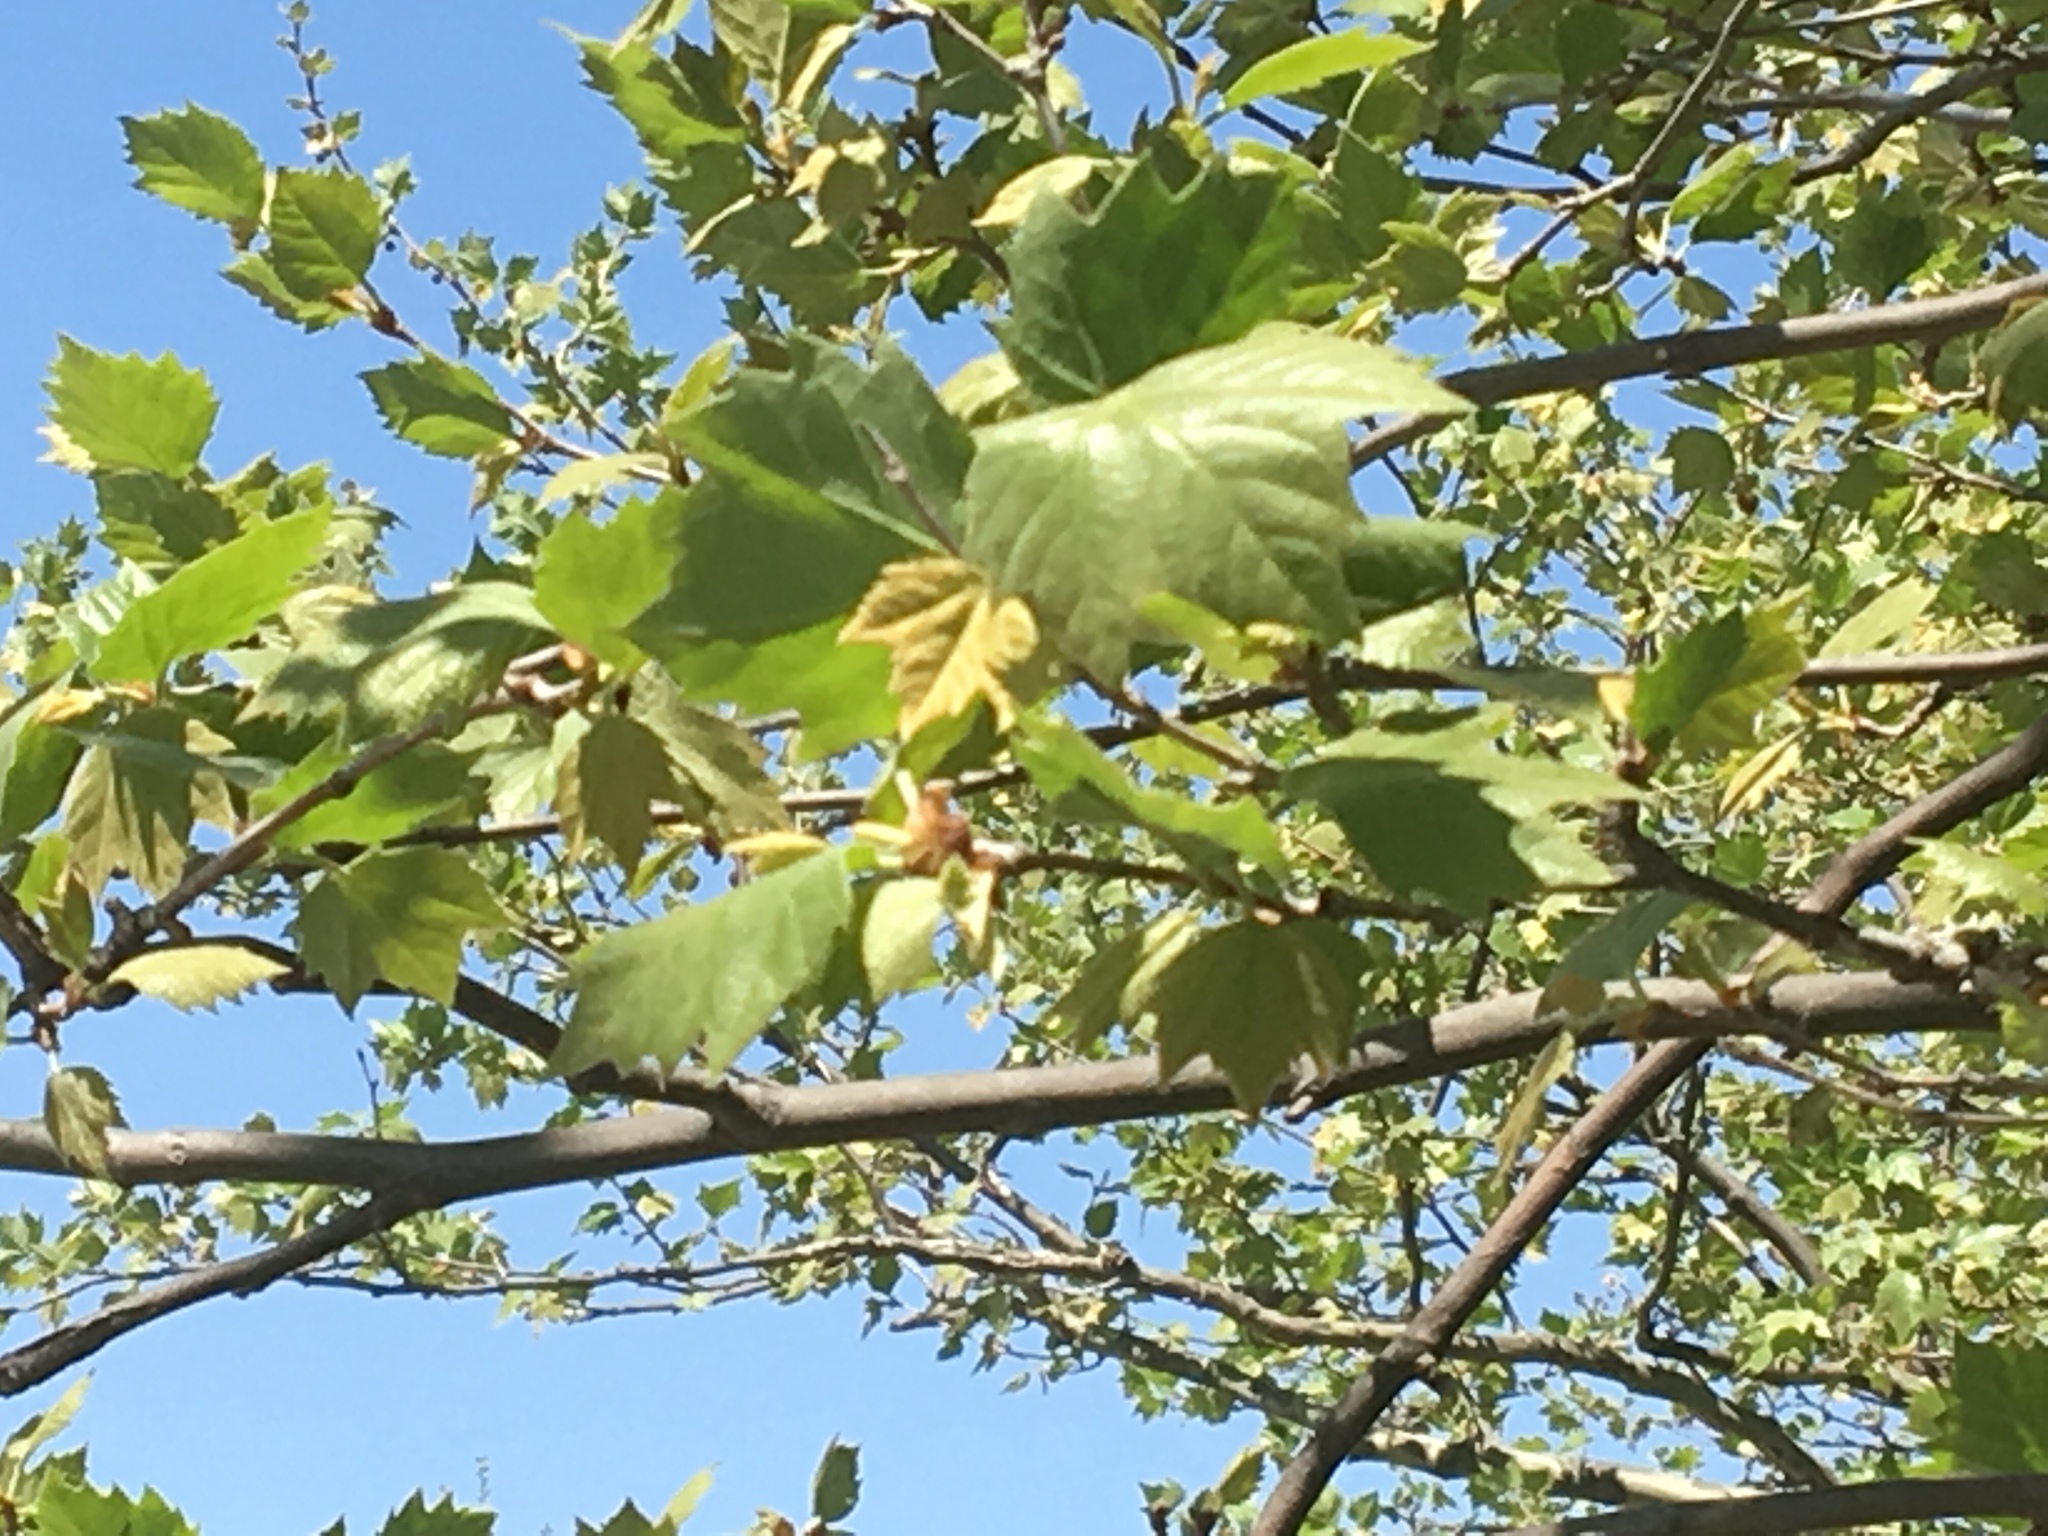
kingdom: Plantae
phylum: Tracheophyta
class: Magnoliopsida
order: Proteales
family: Platanaceae
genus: Platanus
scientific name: Platanus occidentalis
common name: American sycamore
